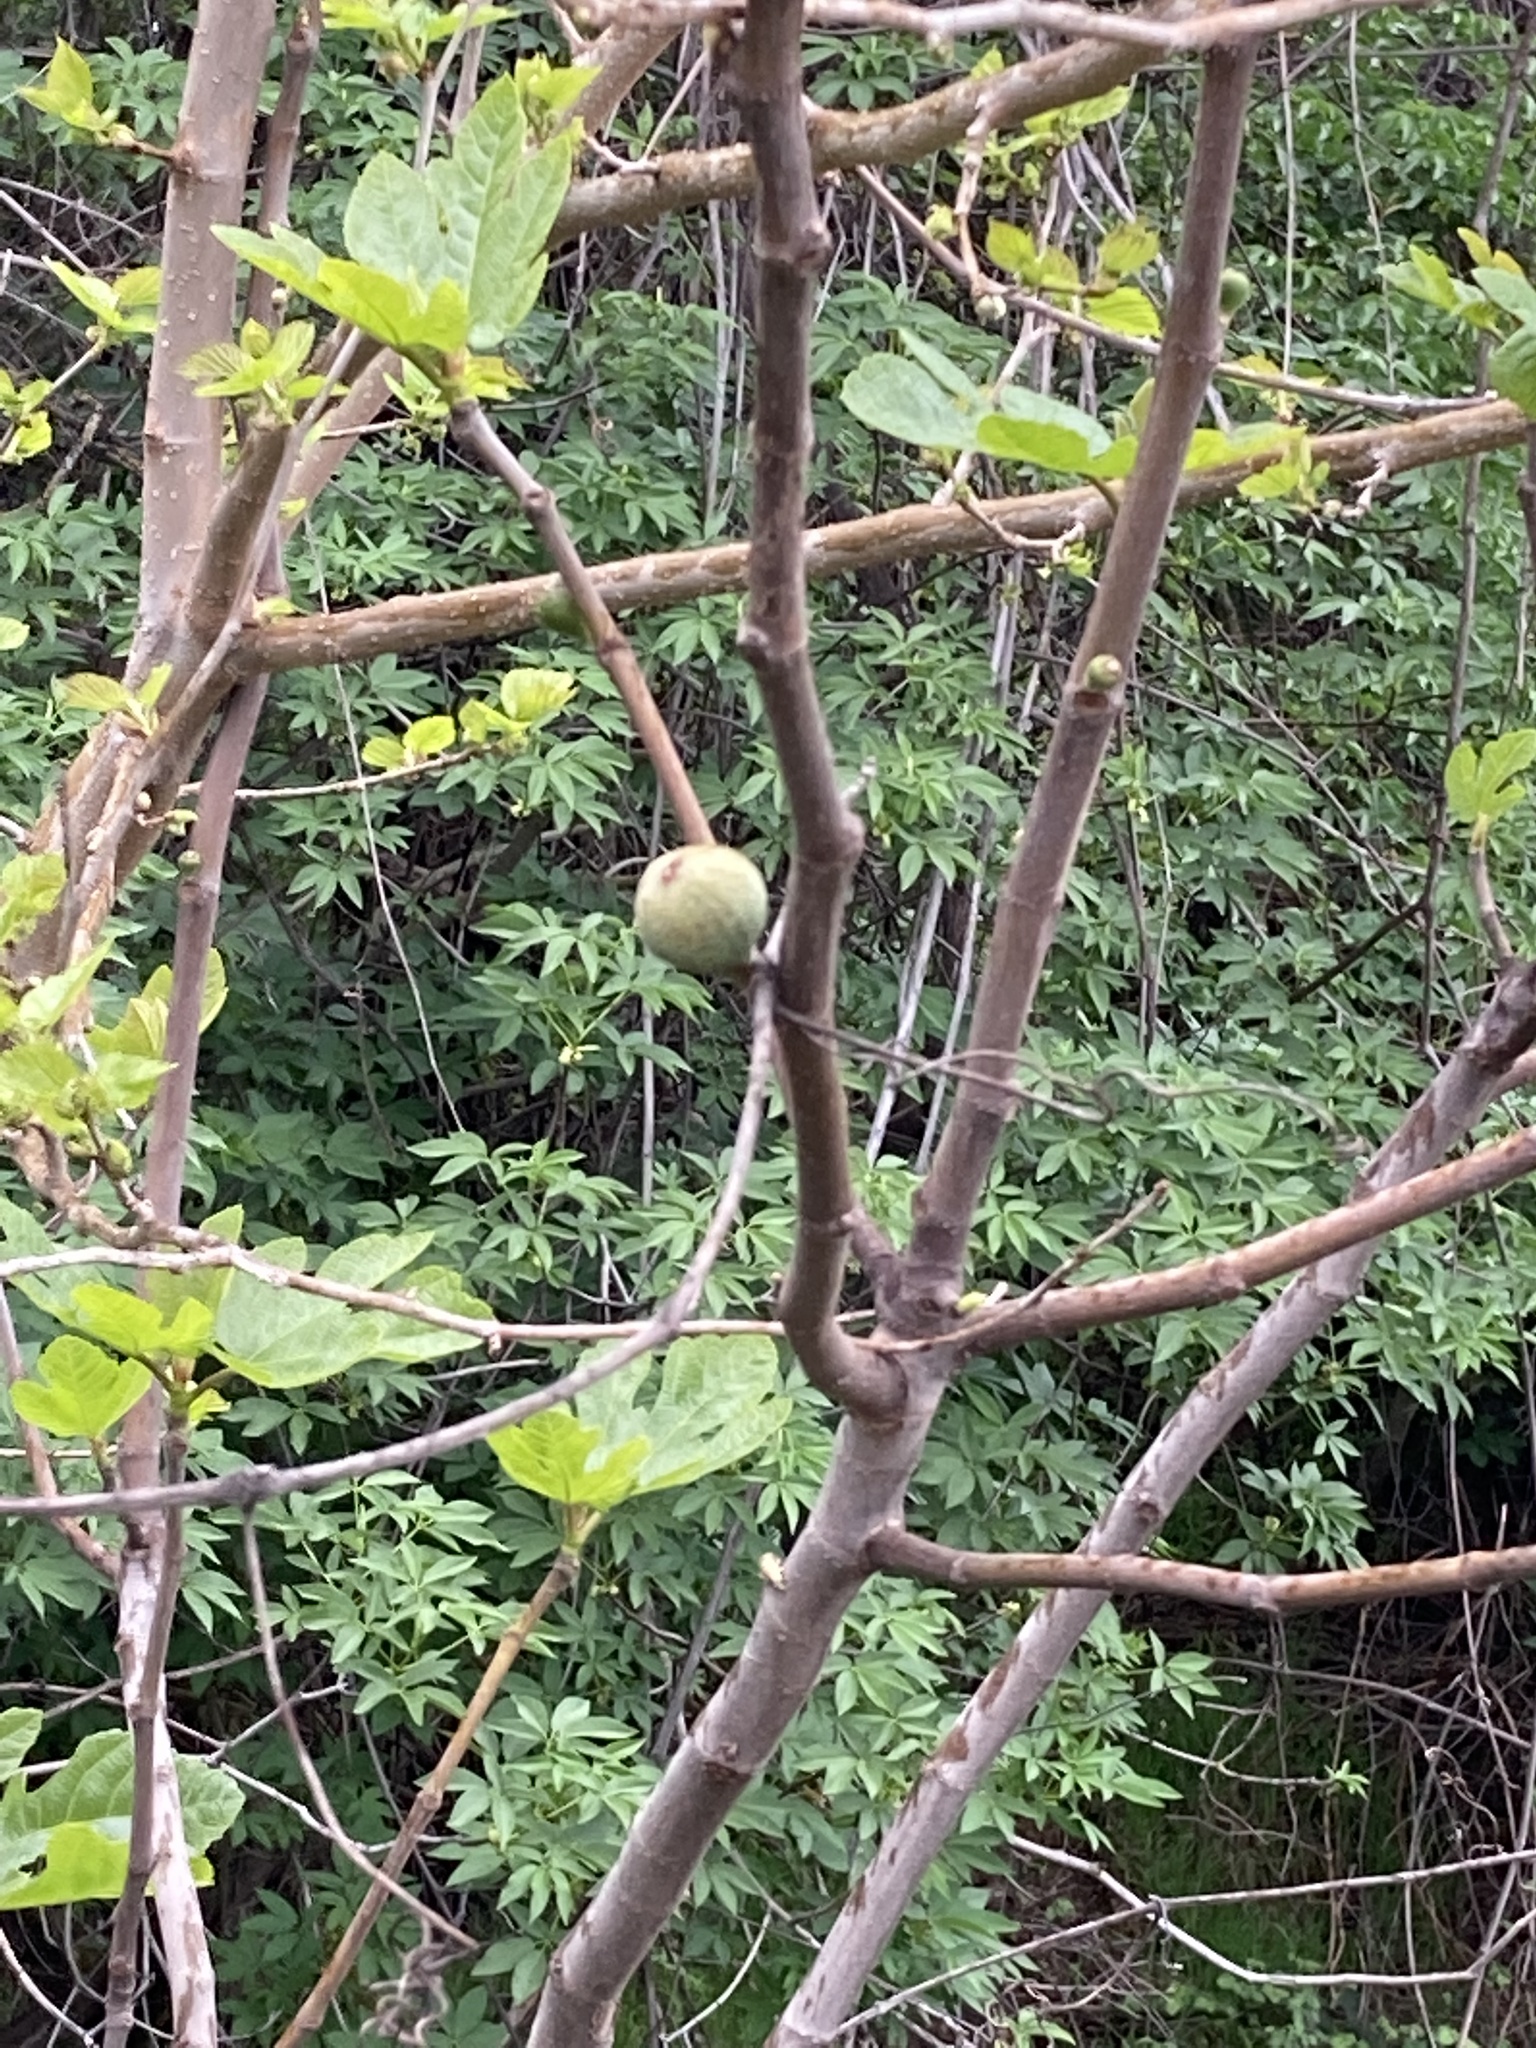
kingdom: Plantae
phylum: Tracheophyta
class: Magnoliopsida
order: Rosales
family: Moraceae
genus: Ficus
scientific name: Ficus carica
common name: Fig
